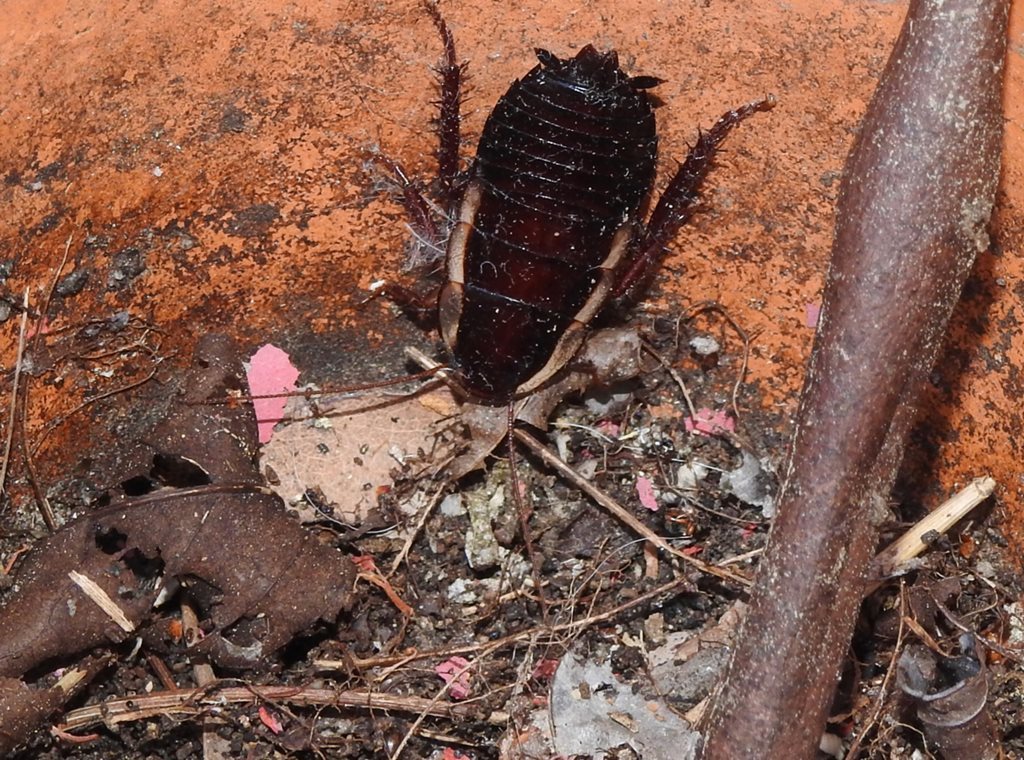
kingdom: Animalia
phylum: Arthropoda
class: Insecta
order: Blattodea
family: Blattidae
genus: Drymaplaneta
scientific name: Drymaplaneta
